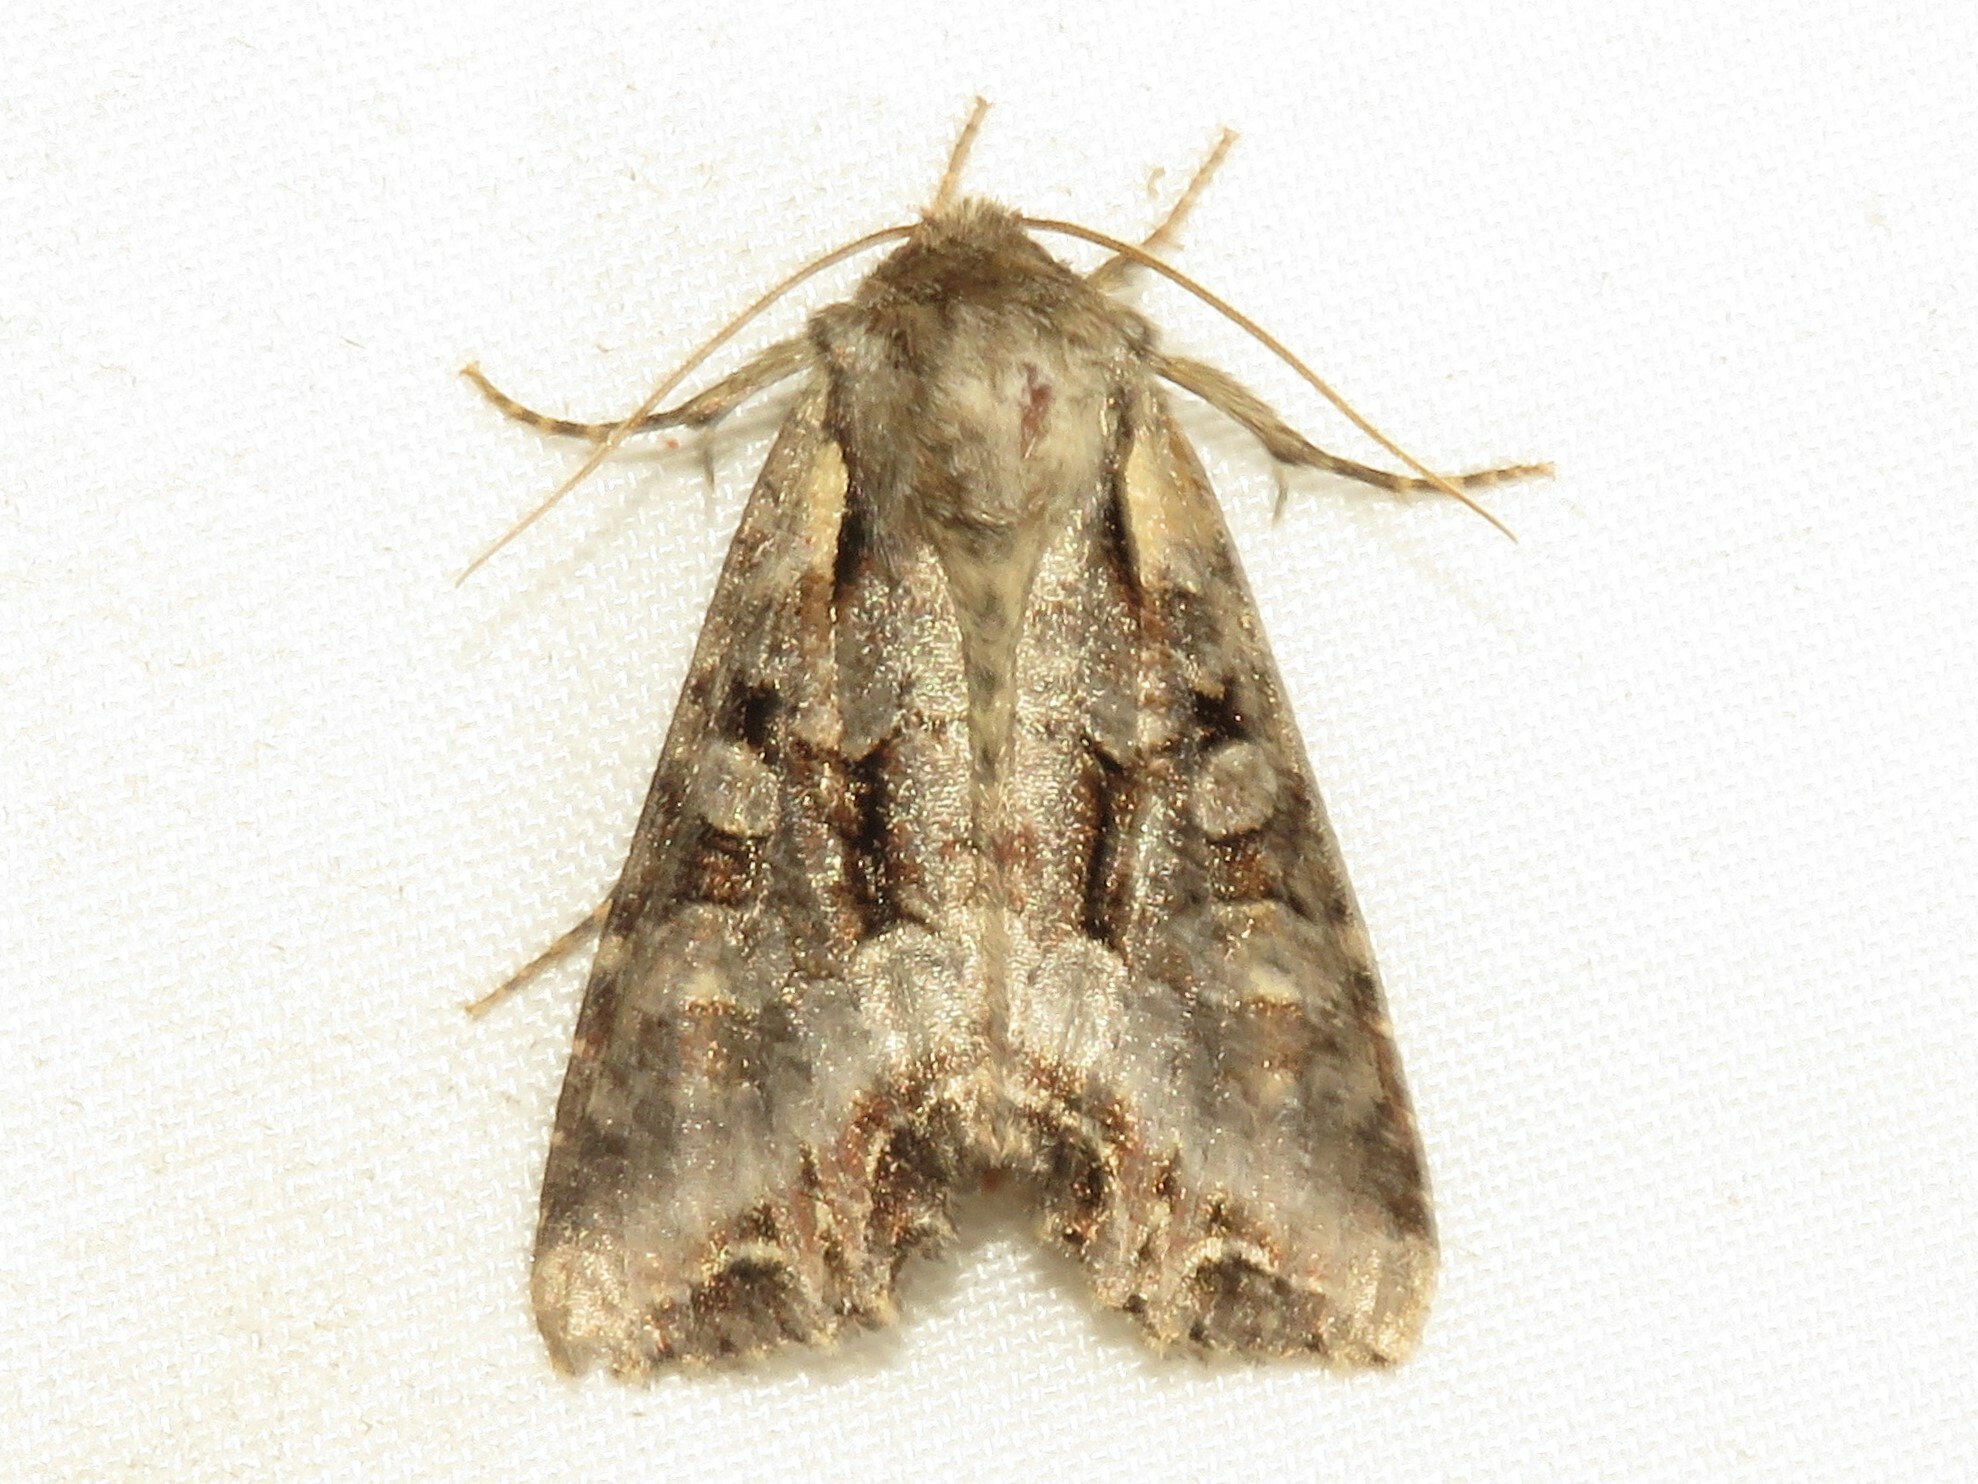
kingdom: Animalia
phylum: Arthropoda
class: Insecta
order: Lepidoptera
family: Noctuidae
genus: Lacanobia
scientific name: Lacanobia grandis
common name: Grand arches moth
